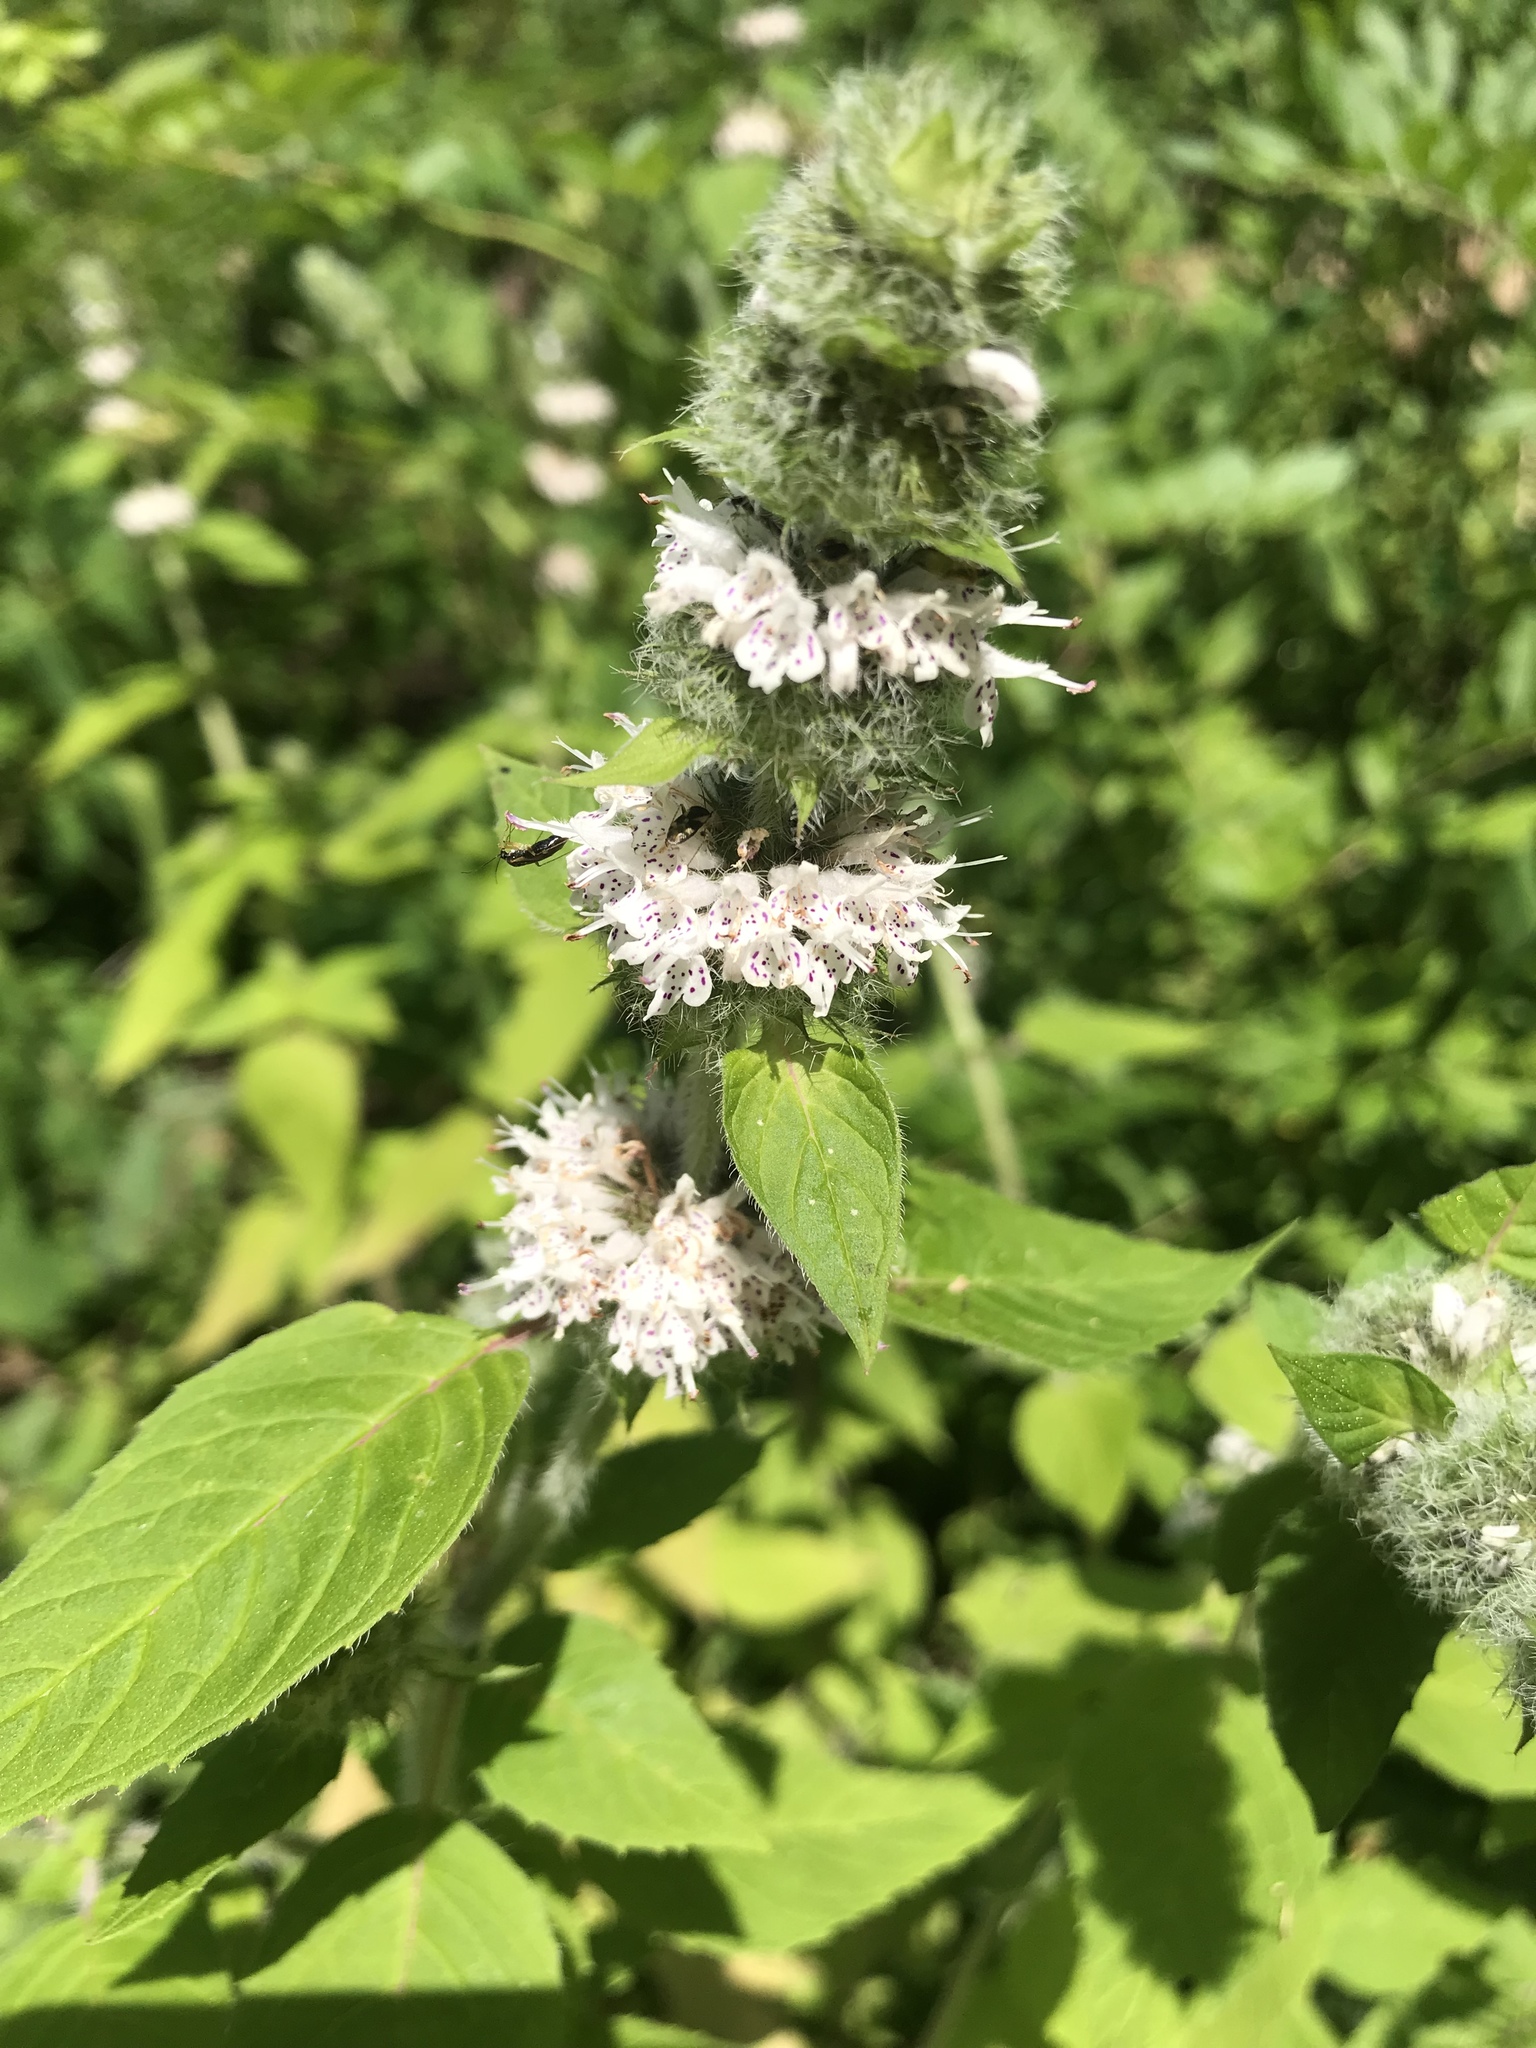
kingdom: Plantae
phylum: Tracheophyta
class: Magnoliopsida
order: Lamiales
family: Lamiaceae
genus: Blephilia
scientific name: Blephilia hirsuta
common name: Hairy blephilia
